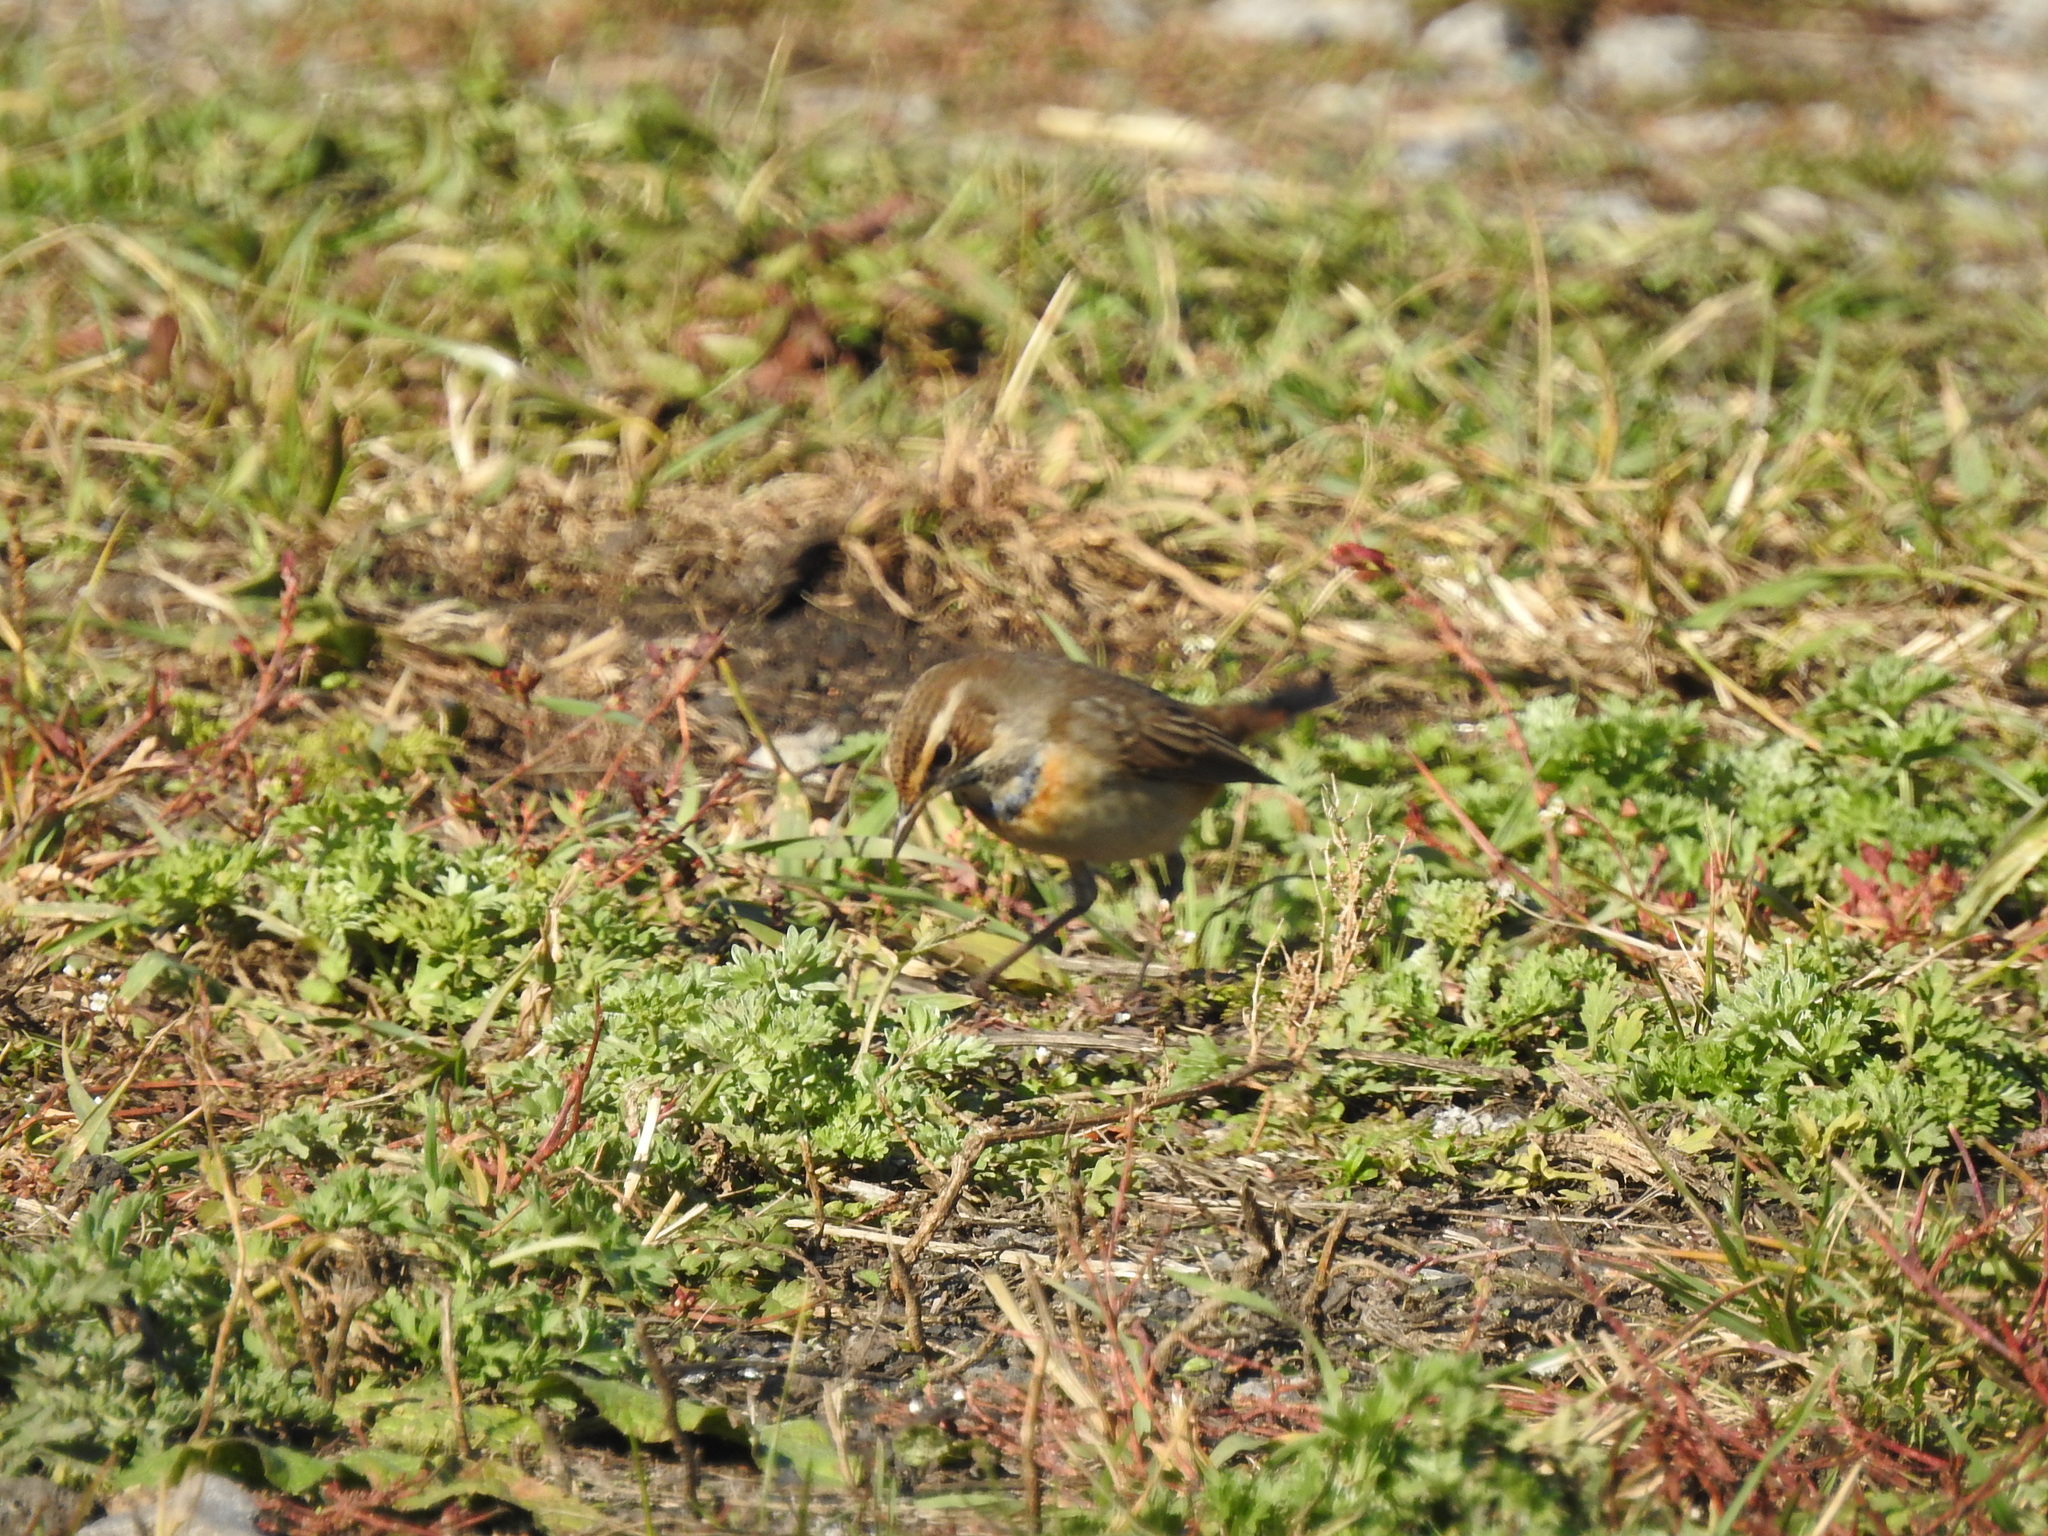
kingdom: Animalia
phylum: Chordata
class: Aves
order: Passeriformes
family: Muscicapidae
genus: Luscinia
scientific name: Luscinia svecica
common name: Bluethroat
